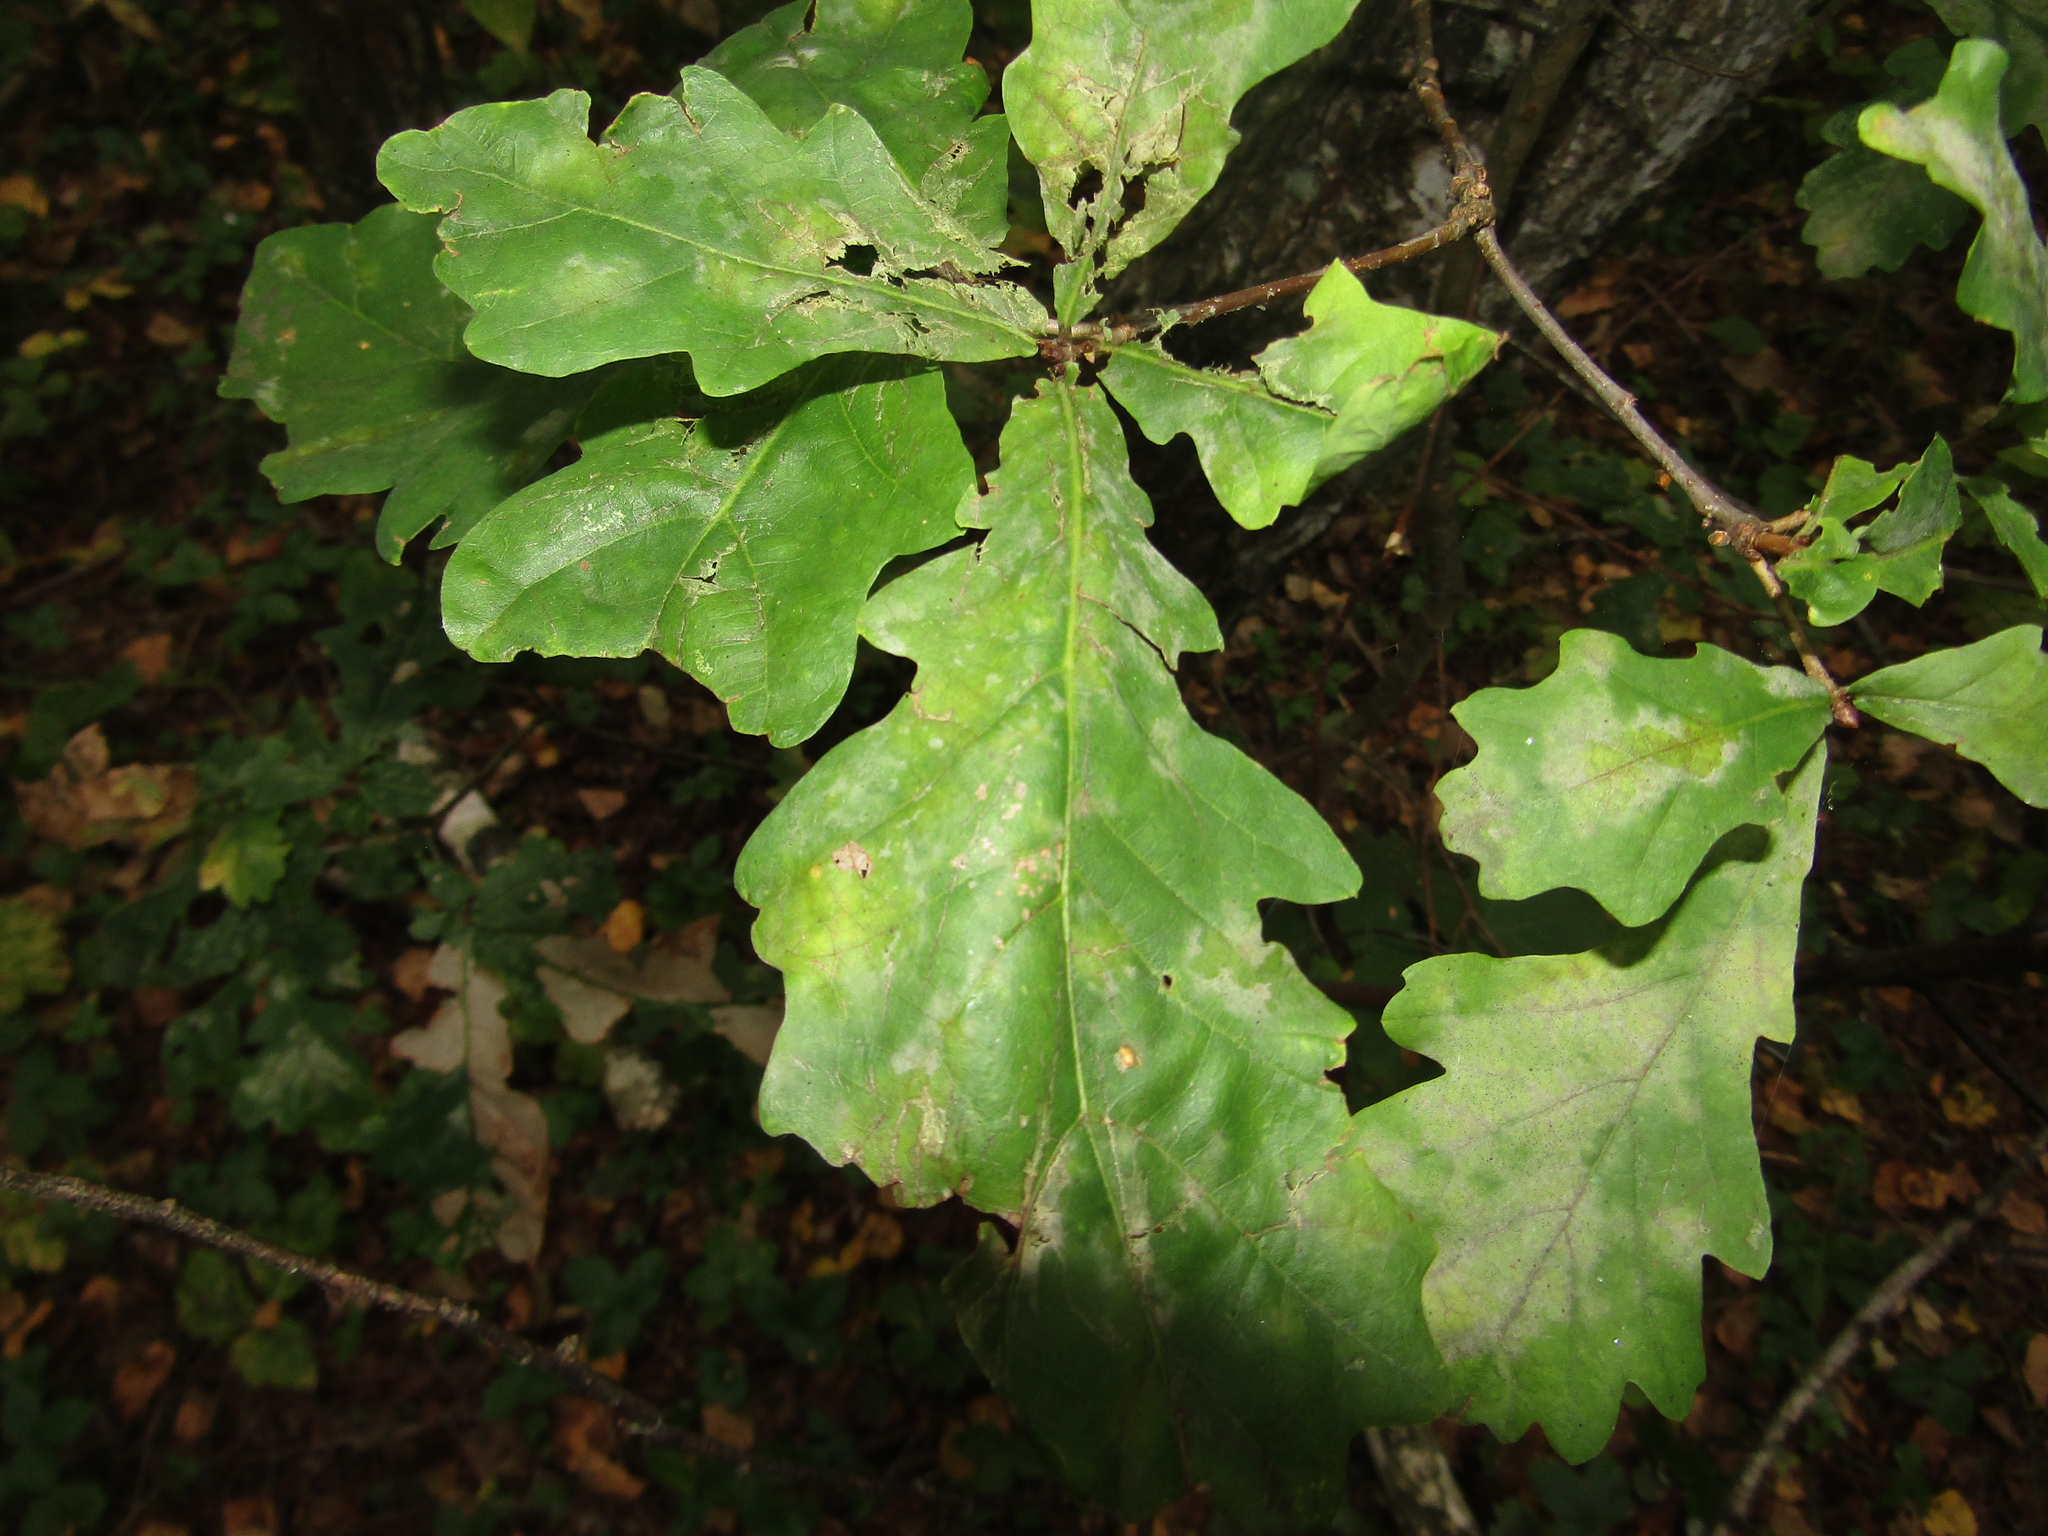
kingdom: Plantae
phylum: Tracheophyta
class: Magnoliopsida
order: Fagales
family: Fagaceae
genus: Quercus
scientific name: Quercus robur
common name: Pedunculate oak
